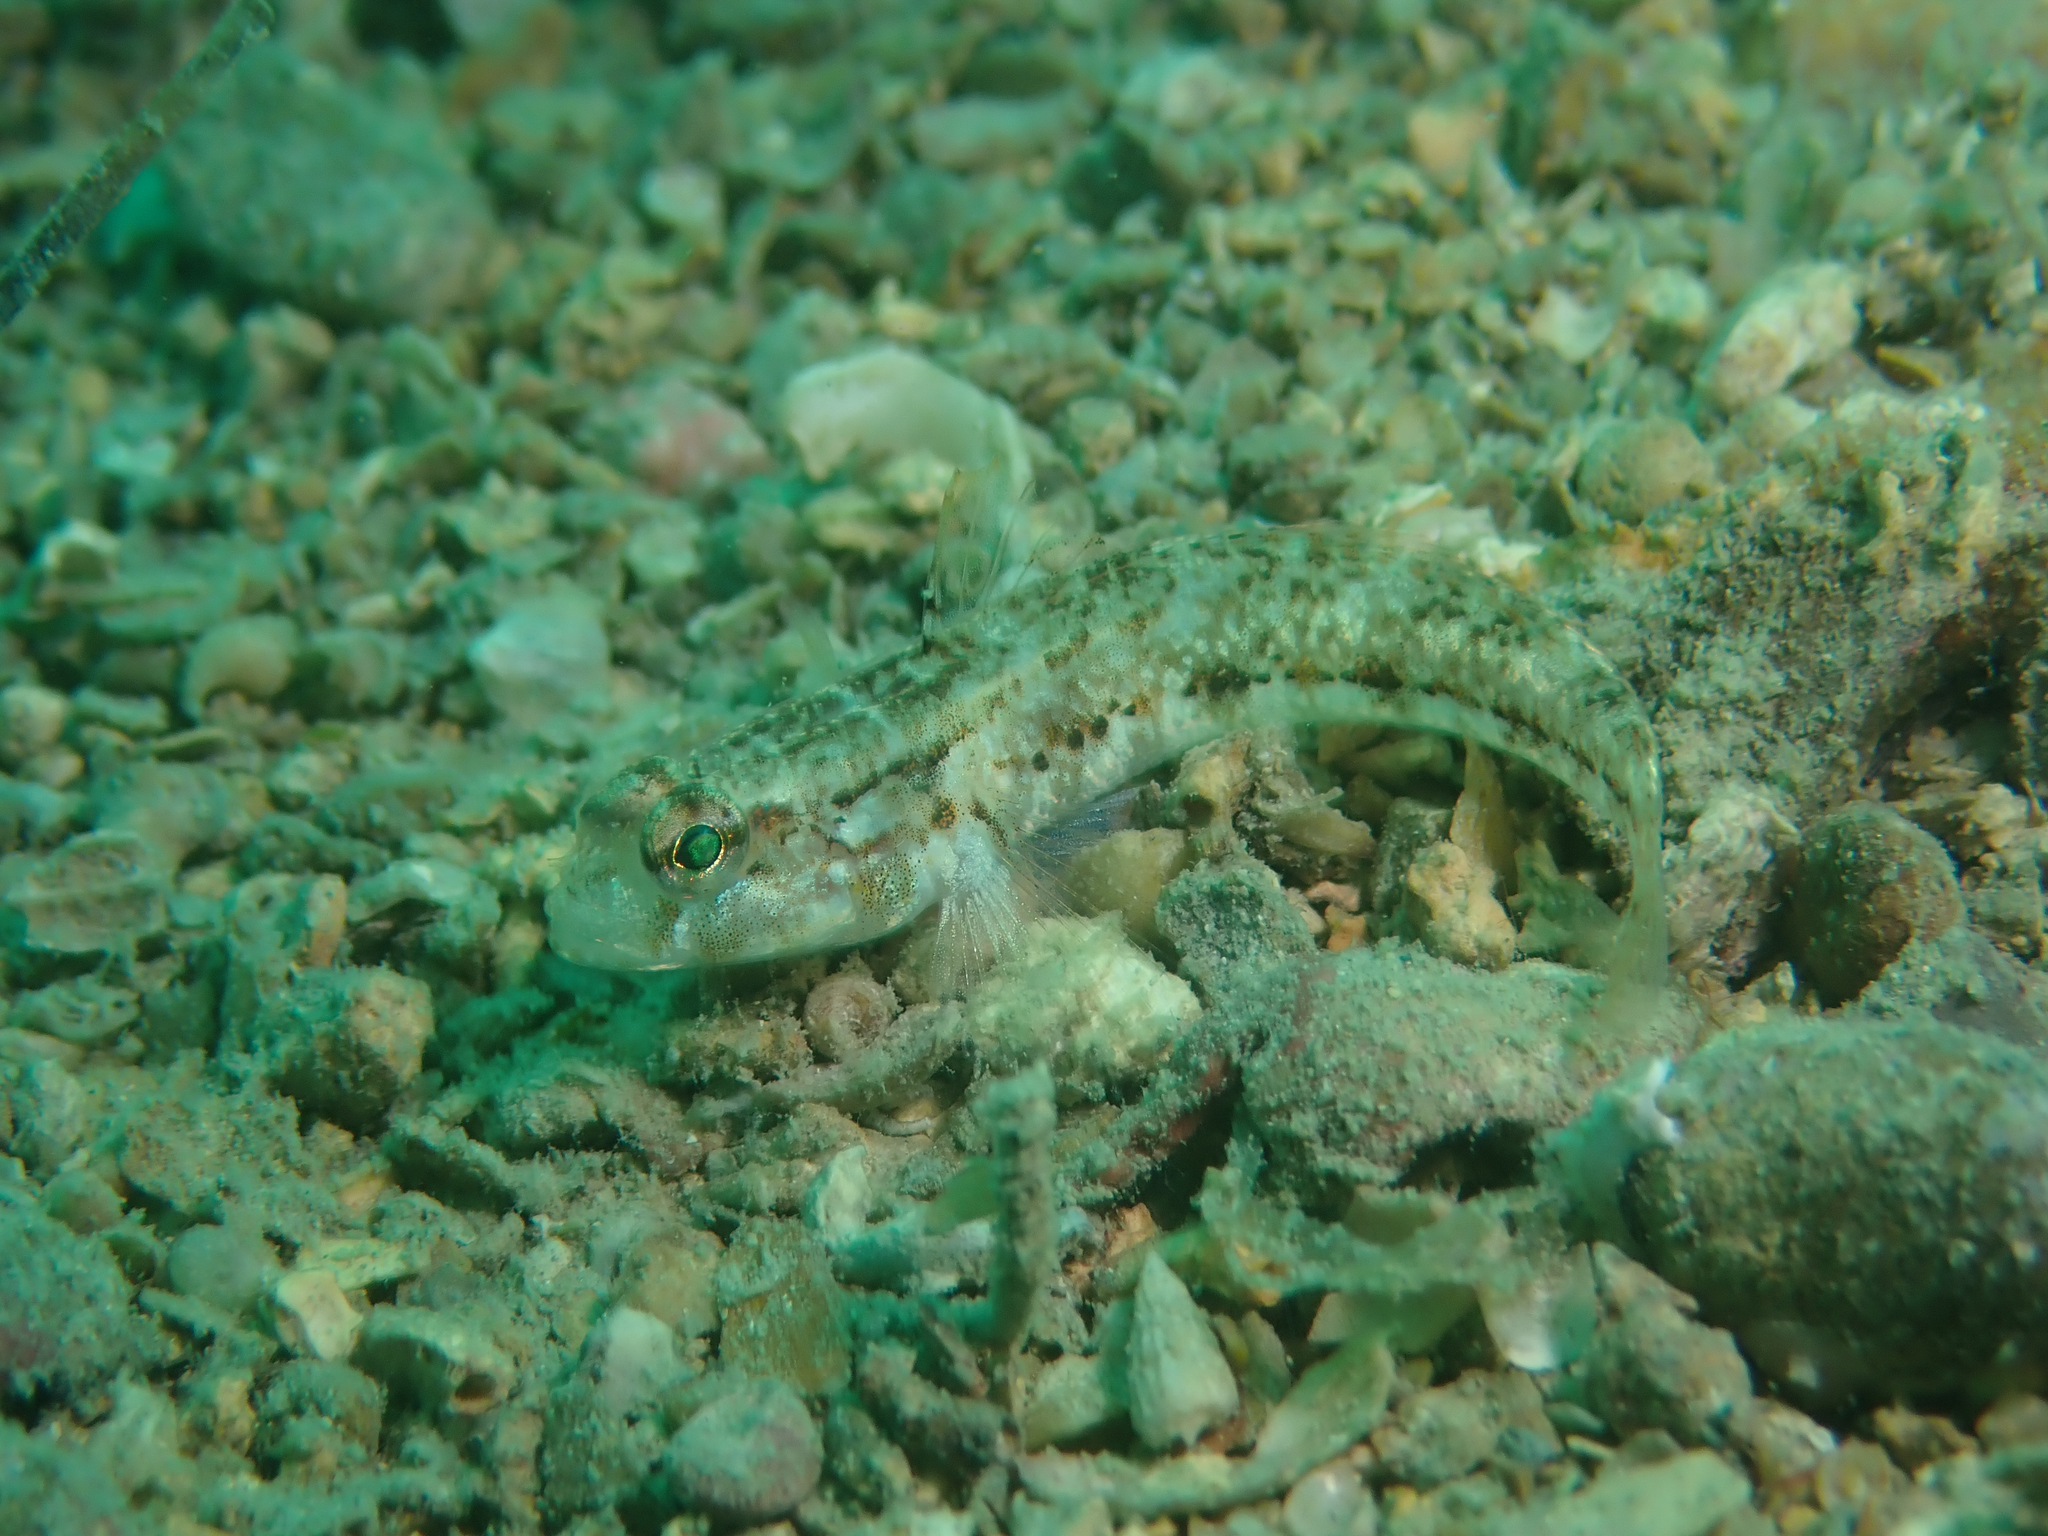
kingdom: Animalia
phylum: Chordata
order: Perciformes
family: Gobiidae
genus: Gobius
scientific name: Gobius roulei
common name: Roule's goby
